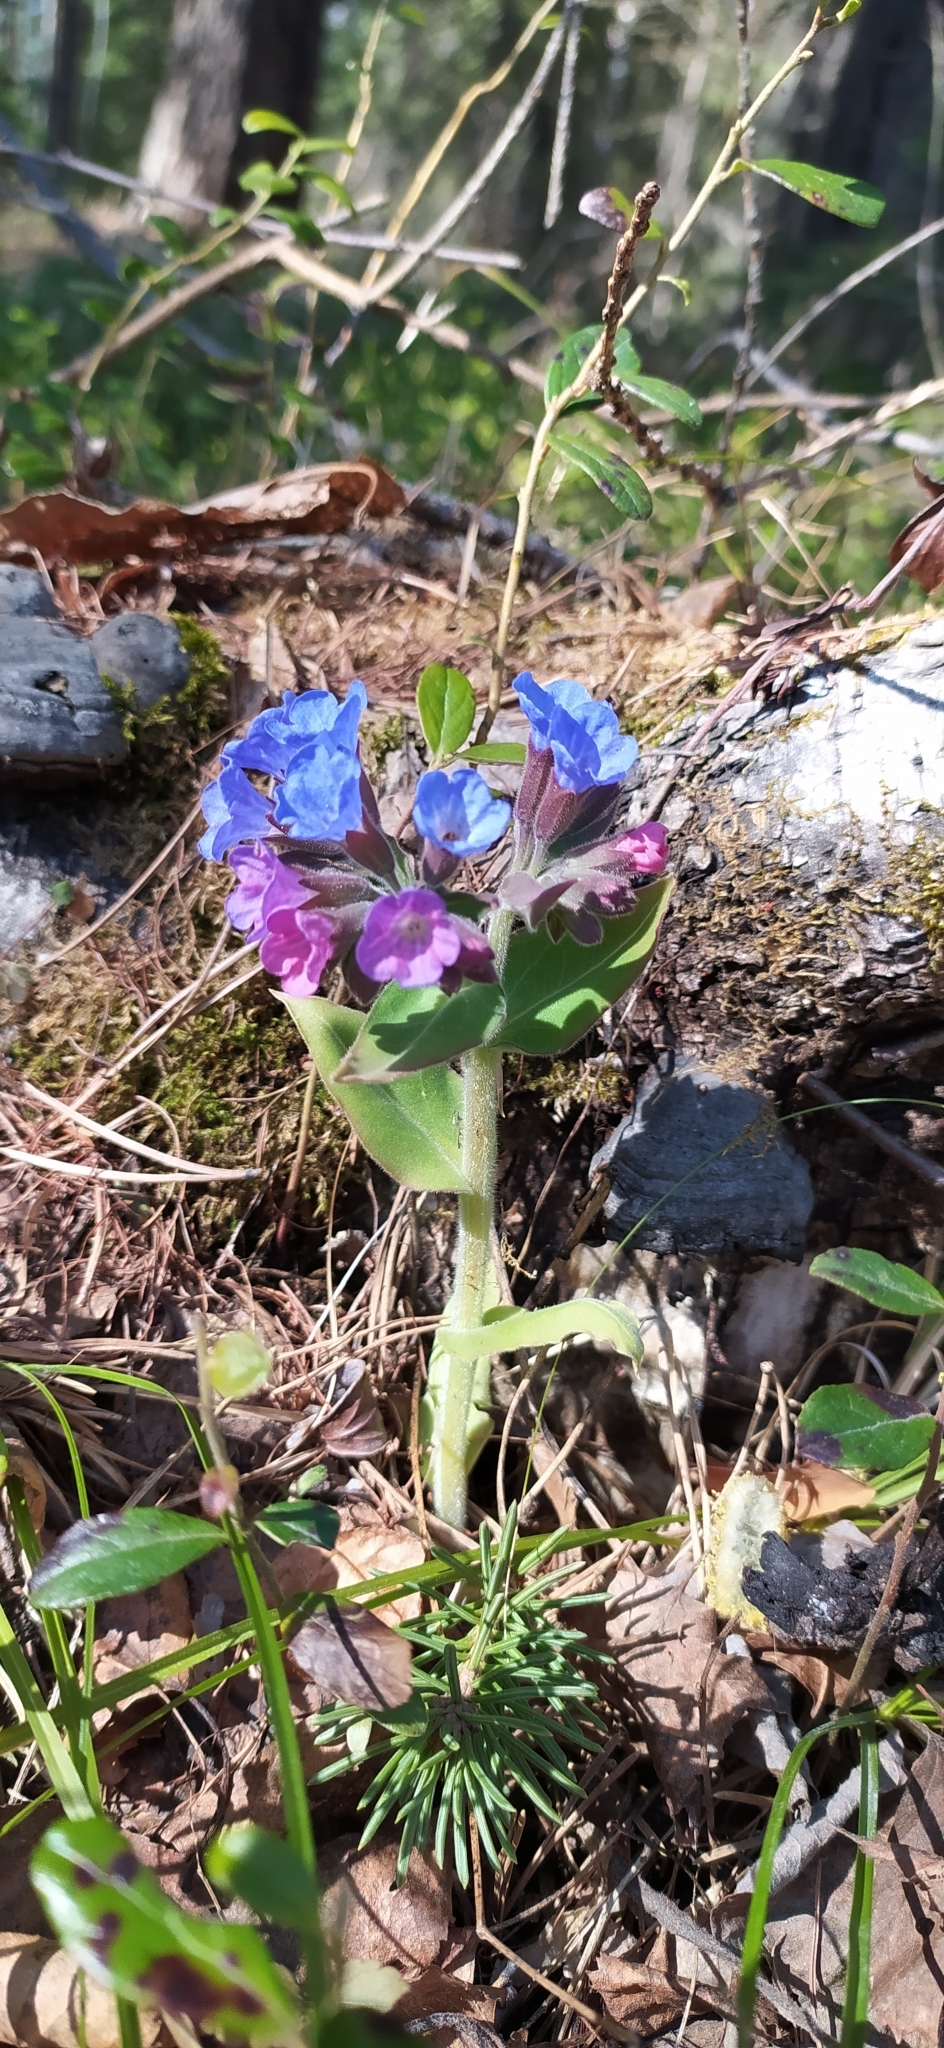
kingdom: Plantae
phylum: Tracheophyta
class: Magnoliopsida
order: Boraginales
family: Boraginaceae
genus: Pulmonaria
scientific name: Pulmonaria mollis
